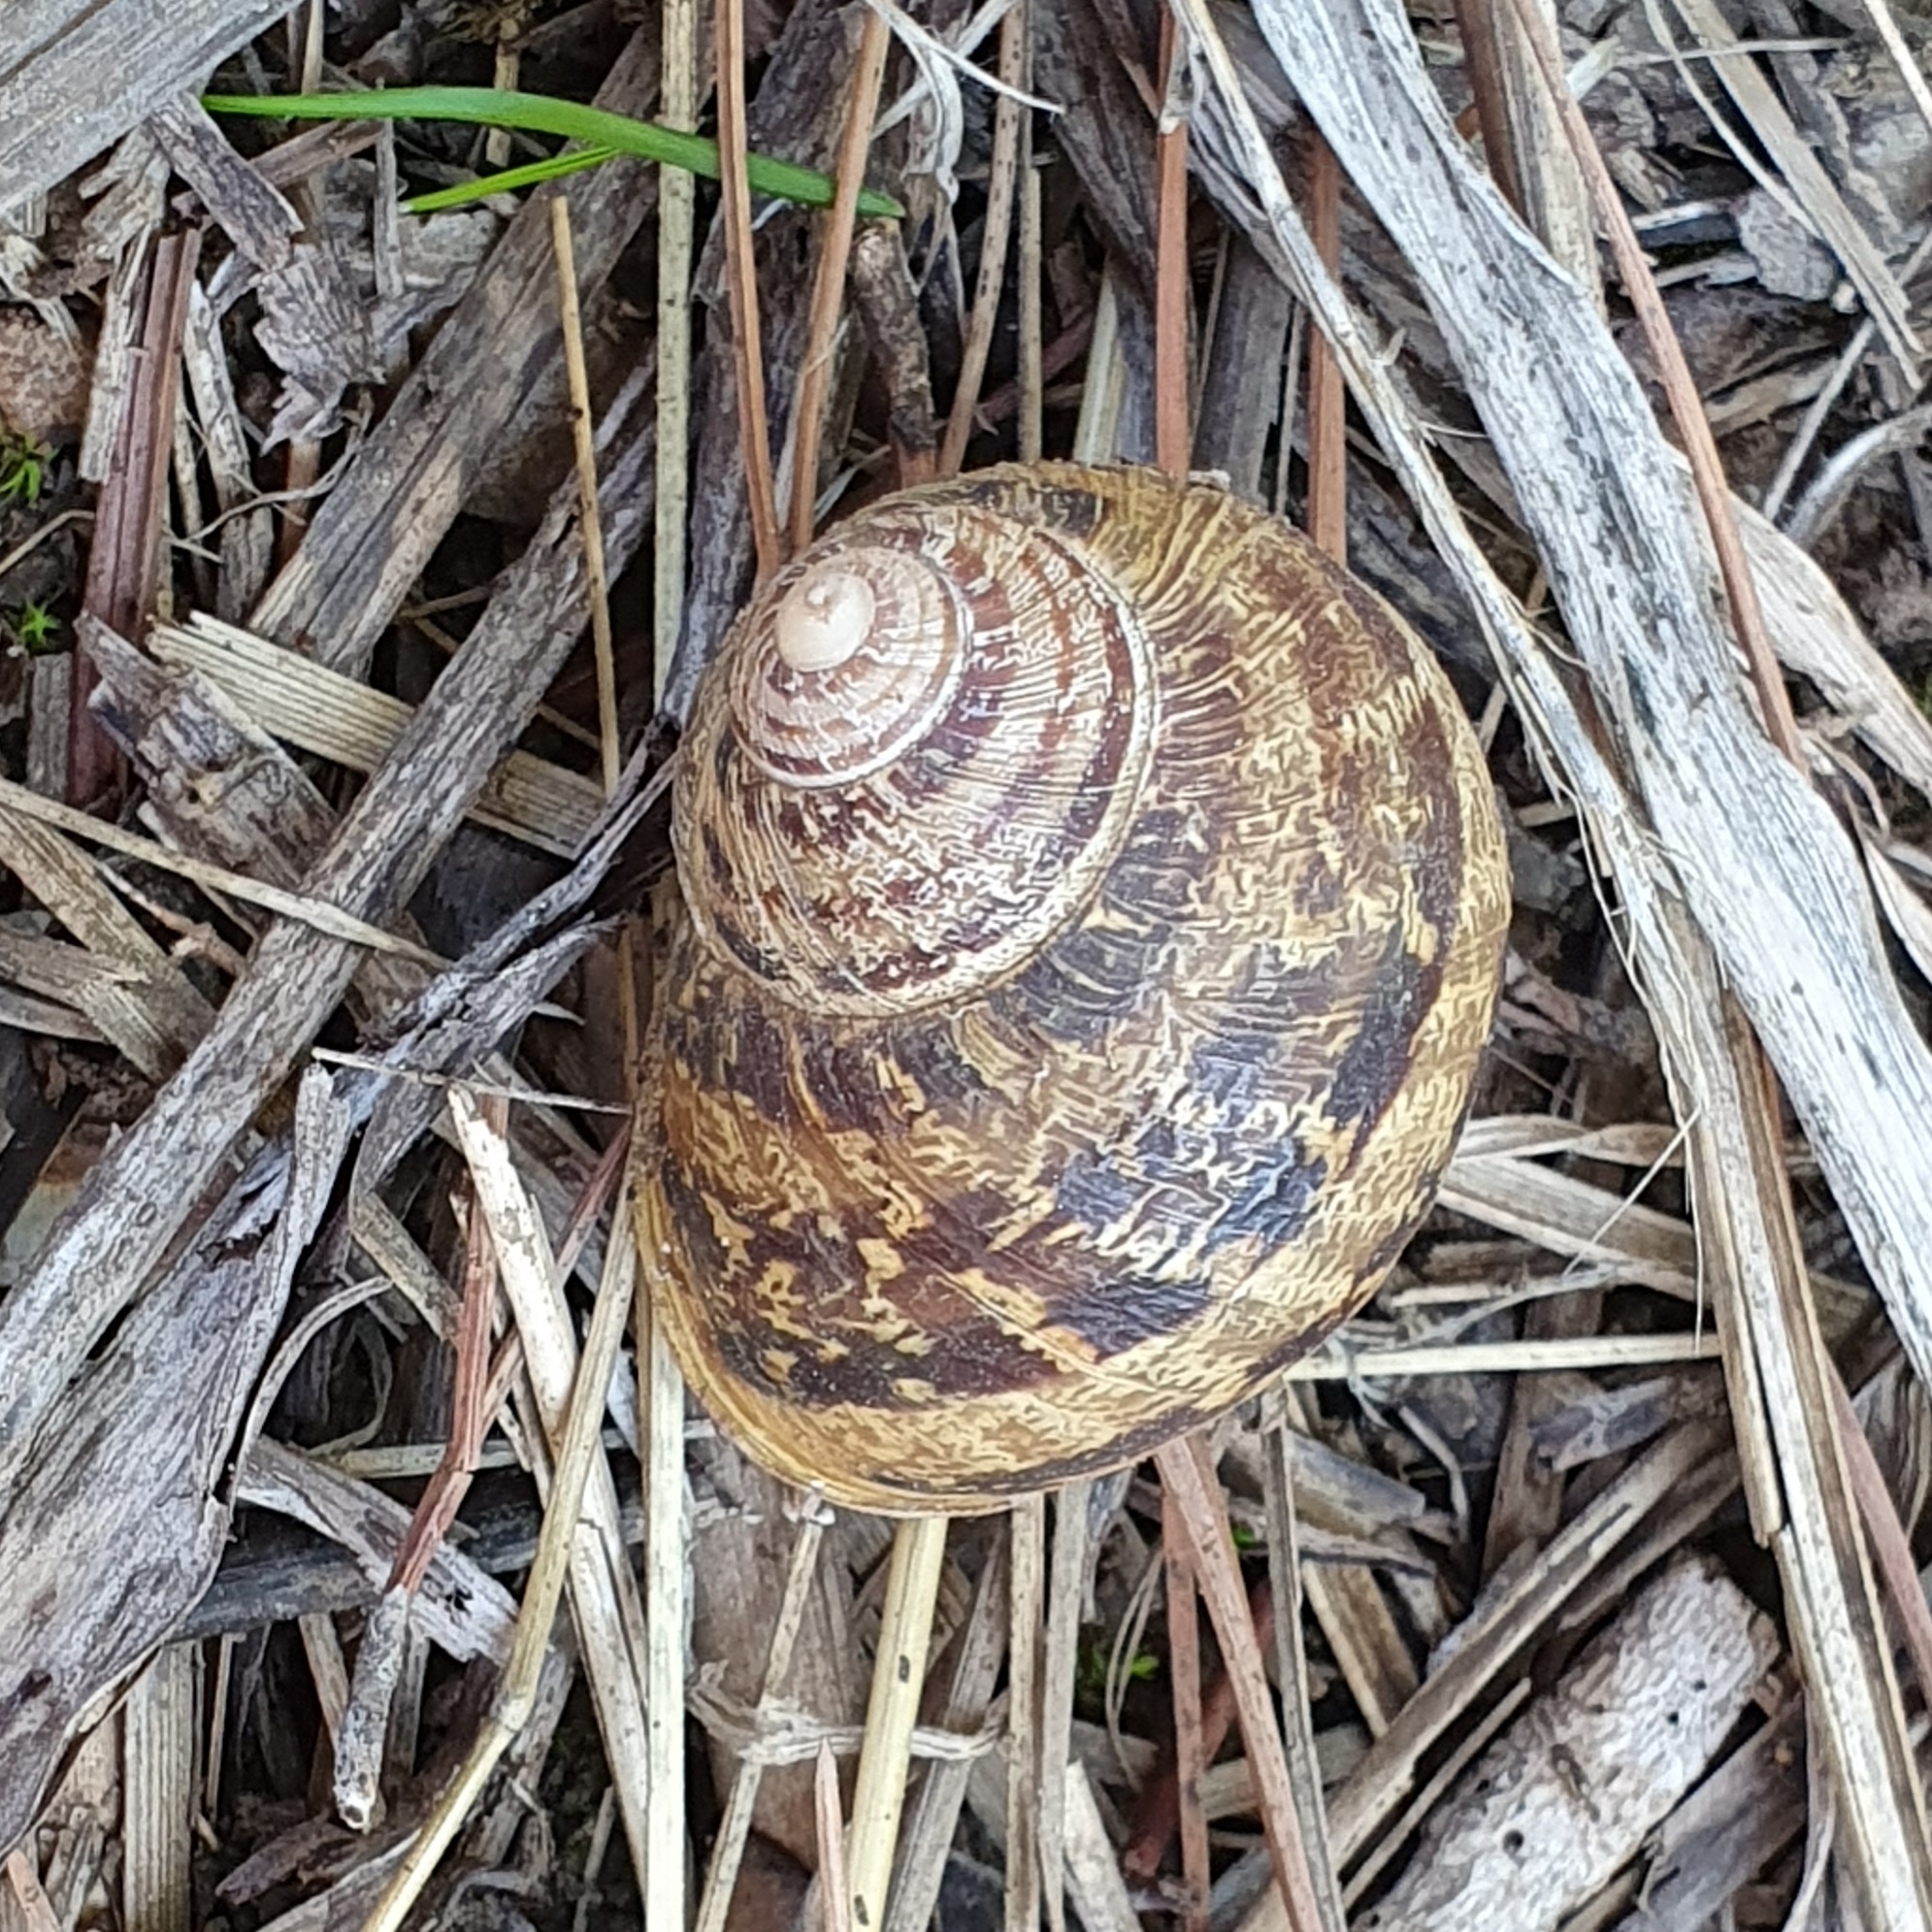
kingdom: Animalia
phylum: Mollusca
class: Gastropoda
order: Stylommatophora
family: Helicidae
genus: Cornu
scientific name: Cornu aspersum
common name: Brown garden snail
